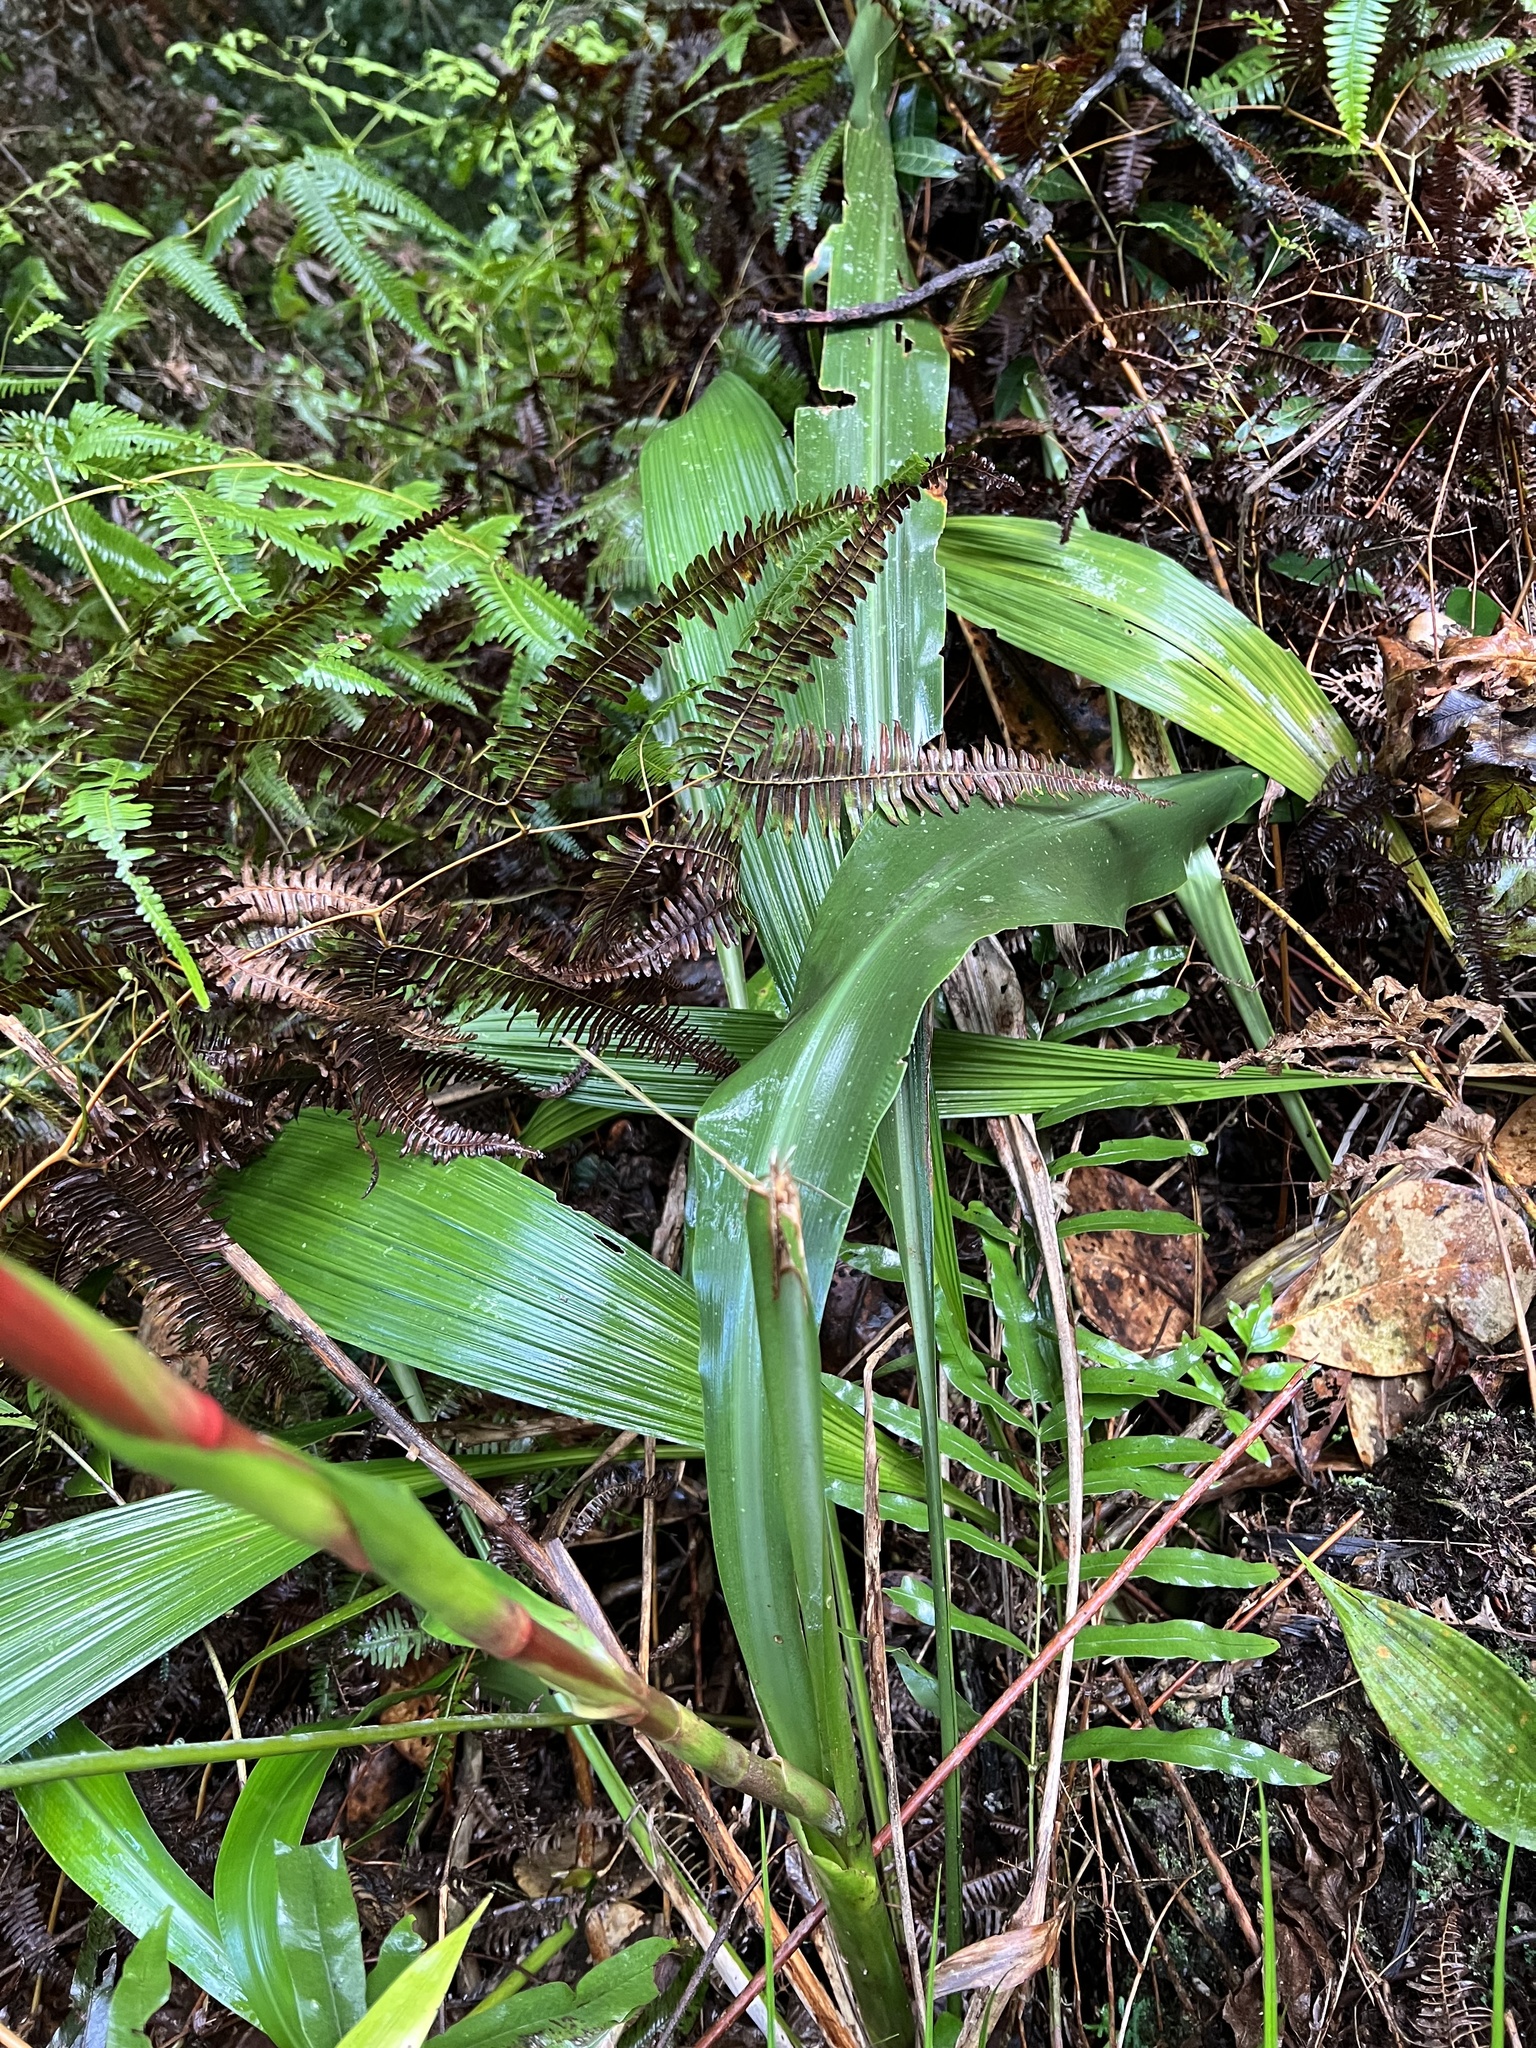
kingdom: Plantae
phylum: Tracheophyta
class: Liliopsida
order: Poales
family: Bromeliaceae
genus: Pitcairnia
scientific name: Pitcairnia maidifolia
